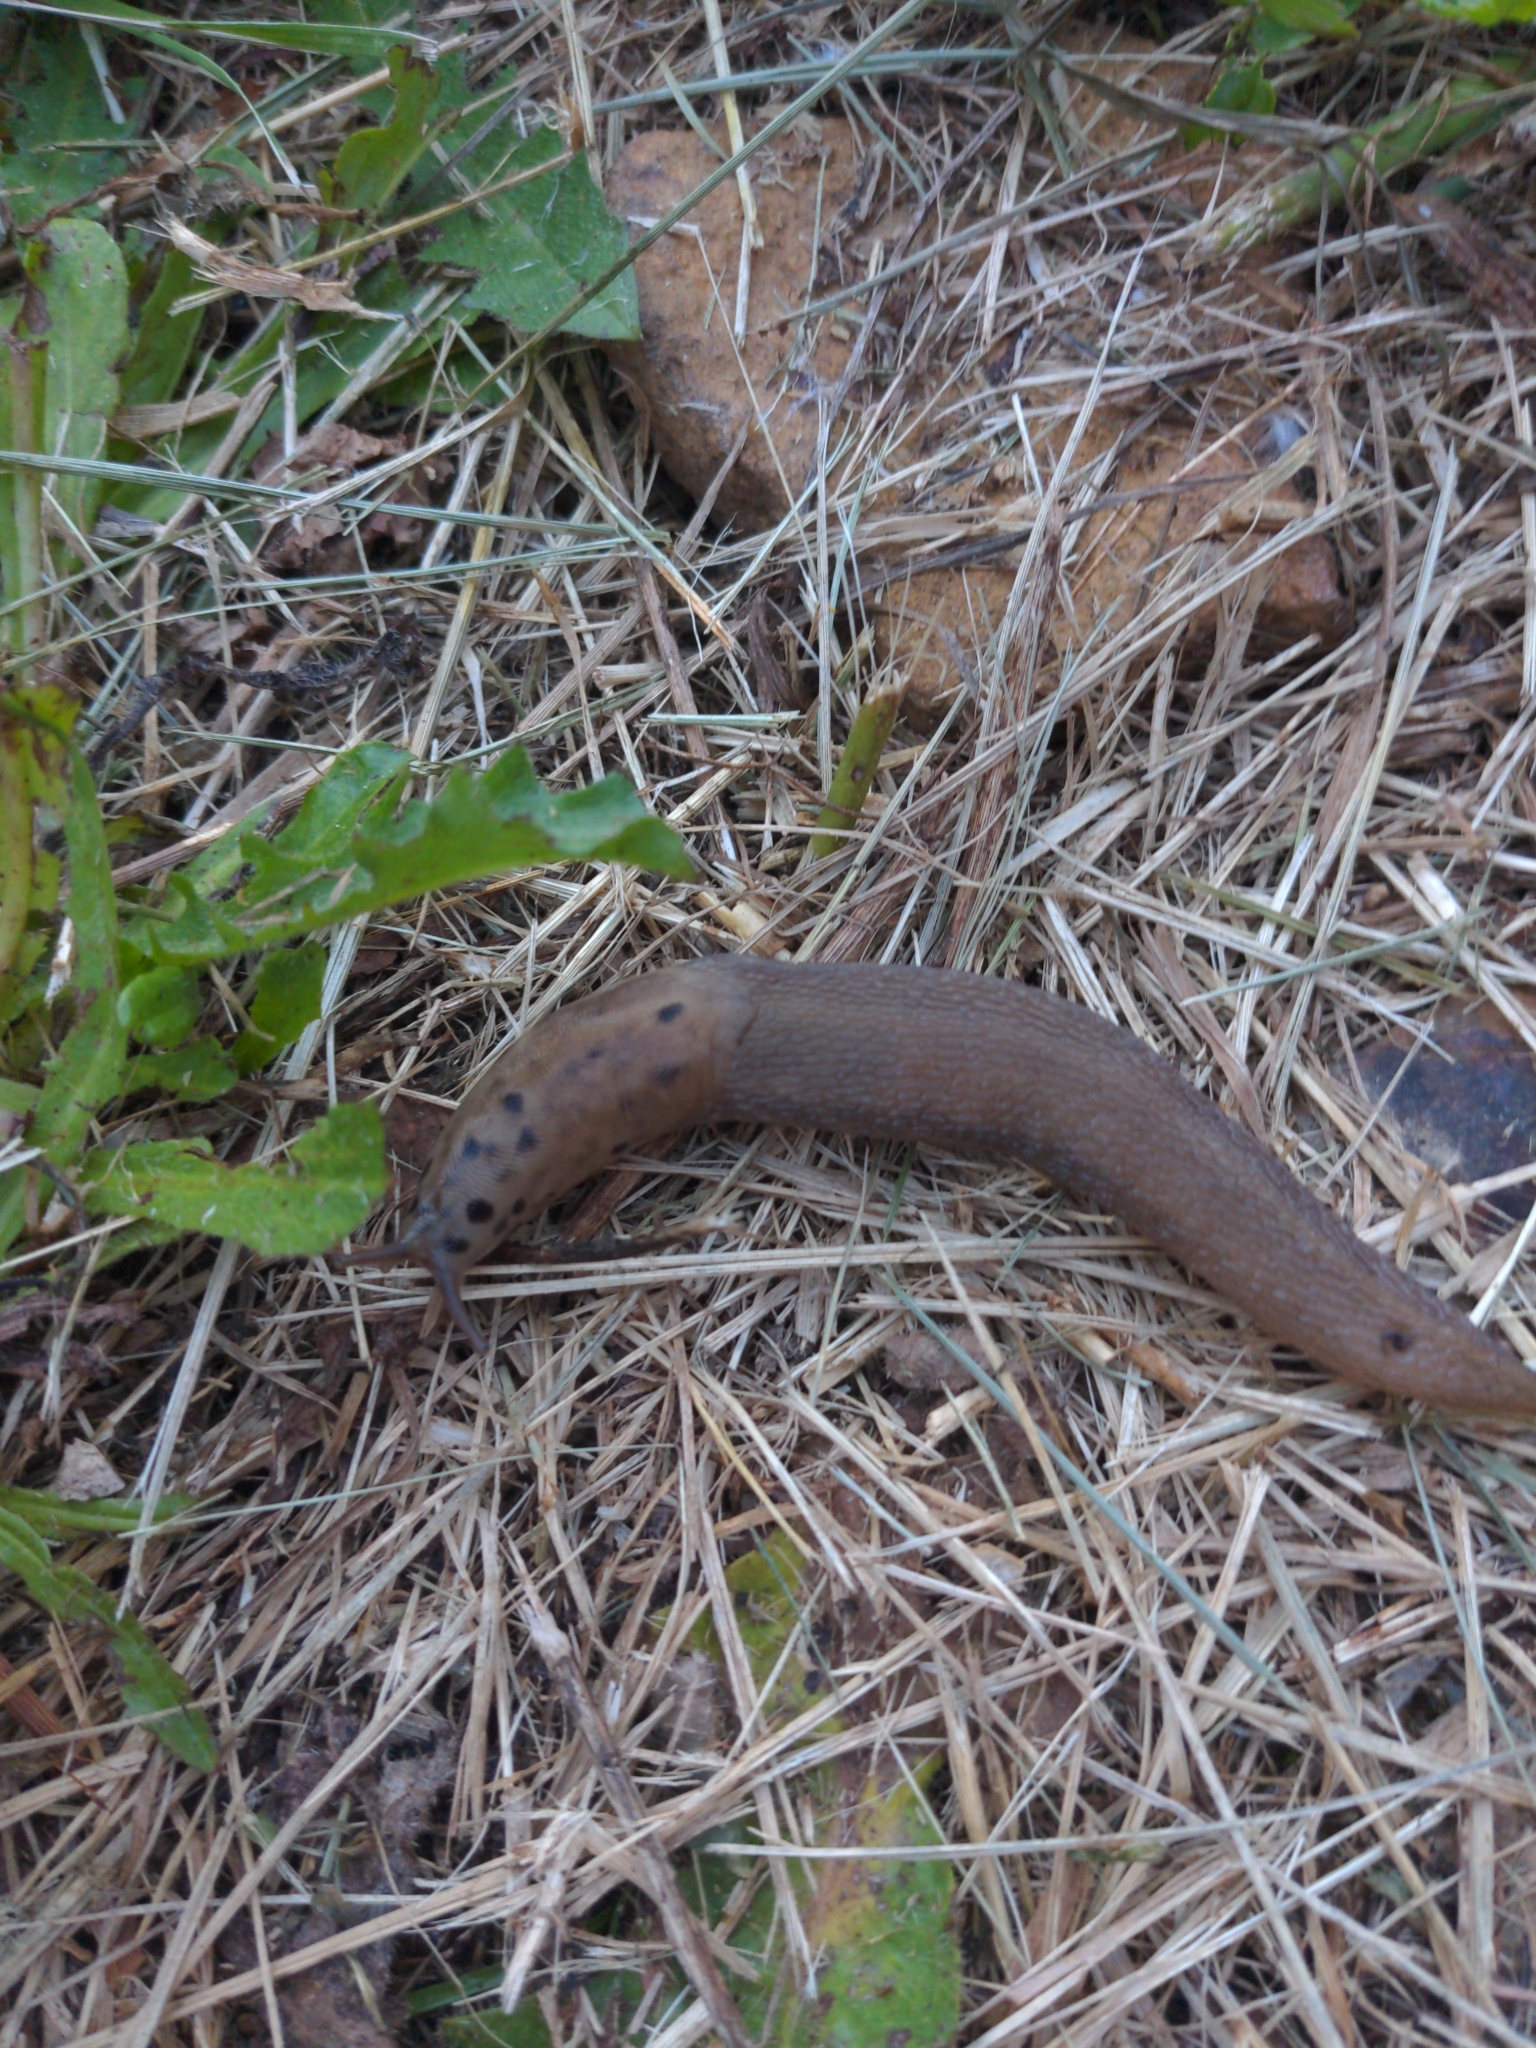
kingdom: Animalia
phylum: Mollusca
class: Gastropoda
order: Stylommatophora
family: Limacidae
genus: Limax
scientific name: Limax maximus
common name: Great grey slug
